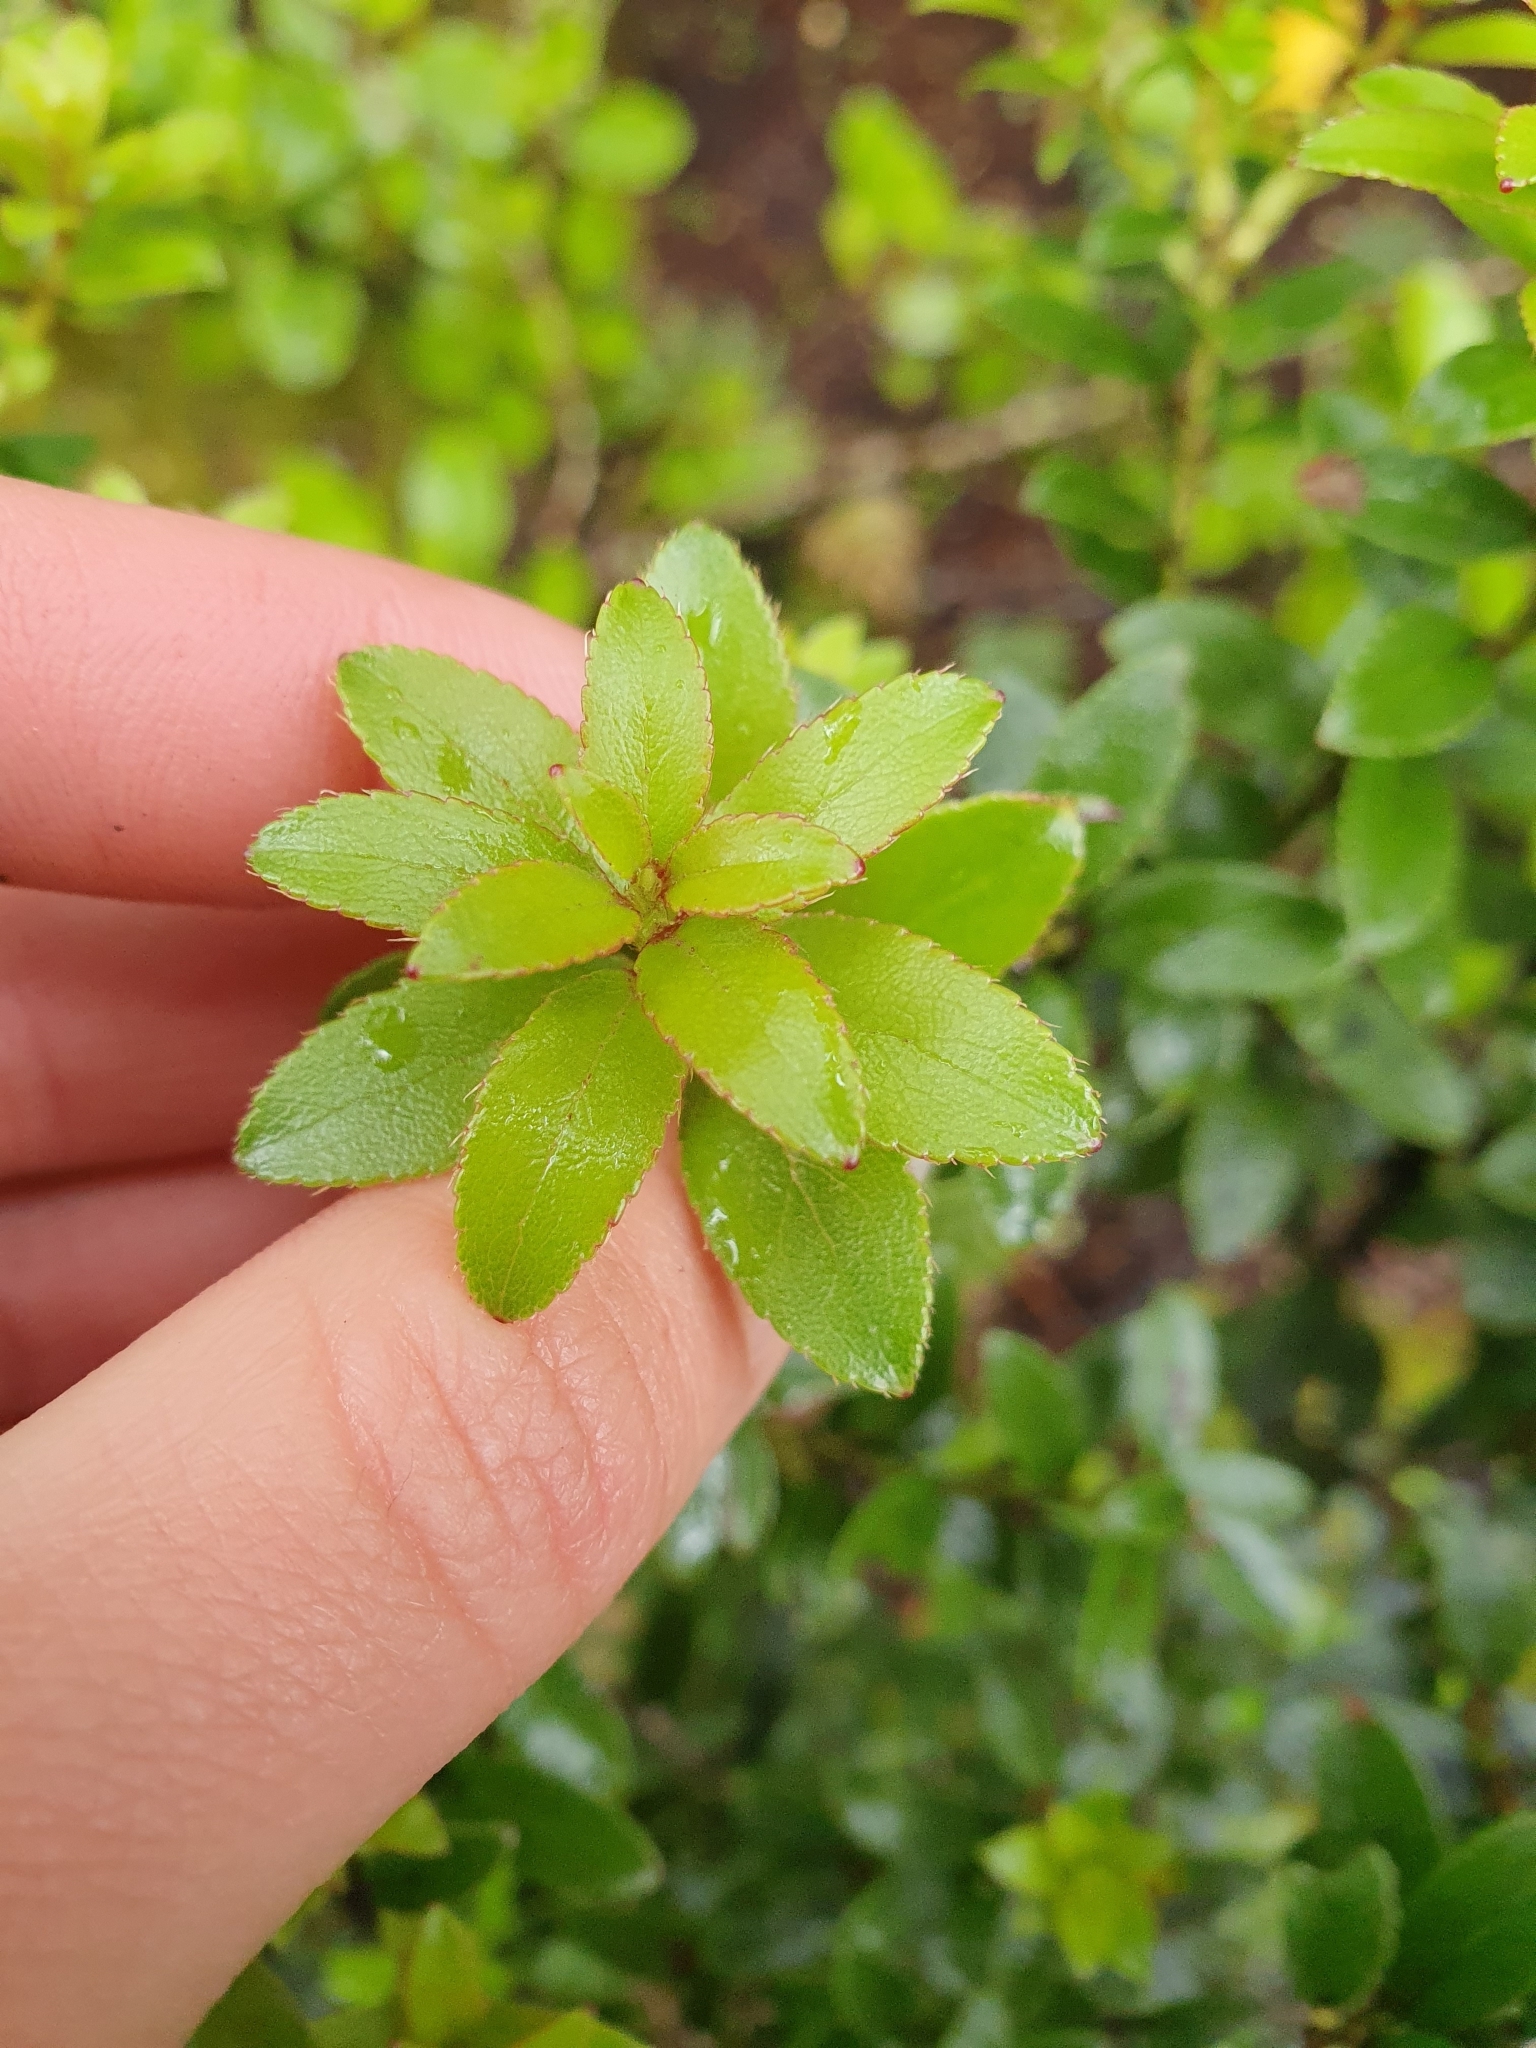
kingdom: Plantae
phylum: Tracheophyta
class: Magnoliopsida
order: Ericales
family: Ericaceae
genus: Gaultheria
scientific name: Gaultheria crassa
